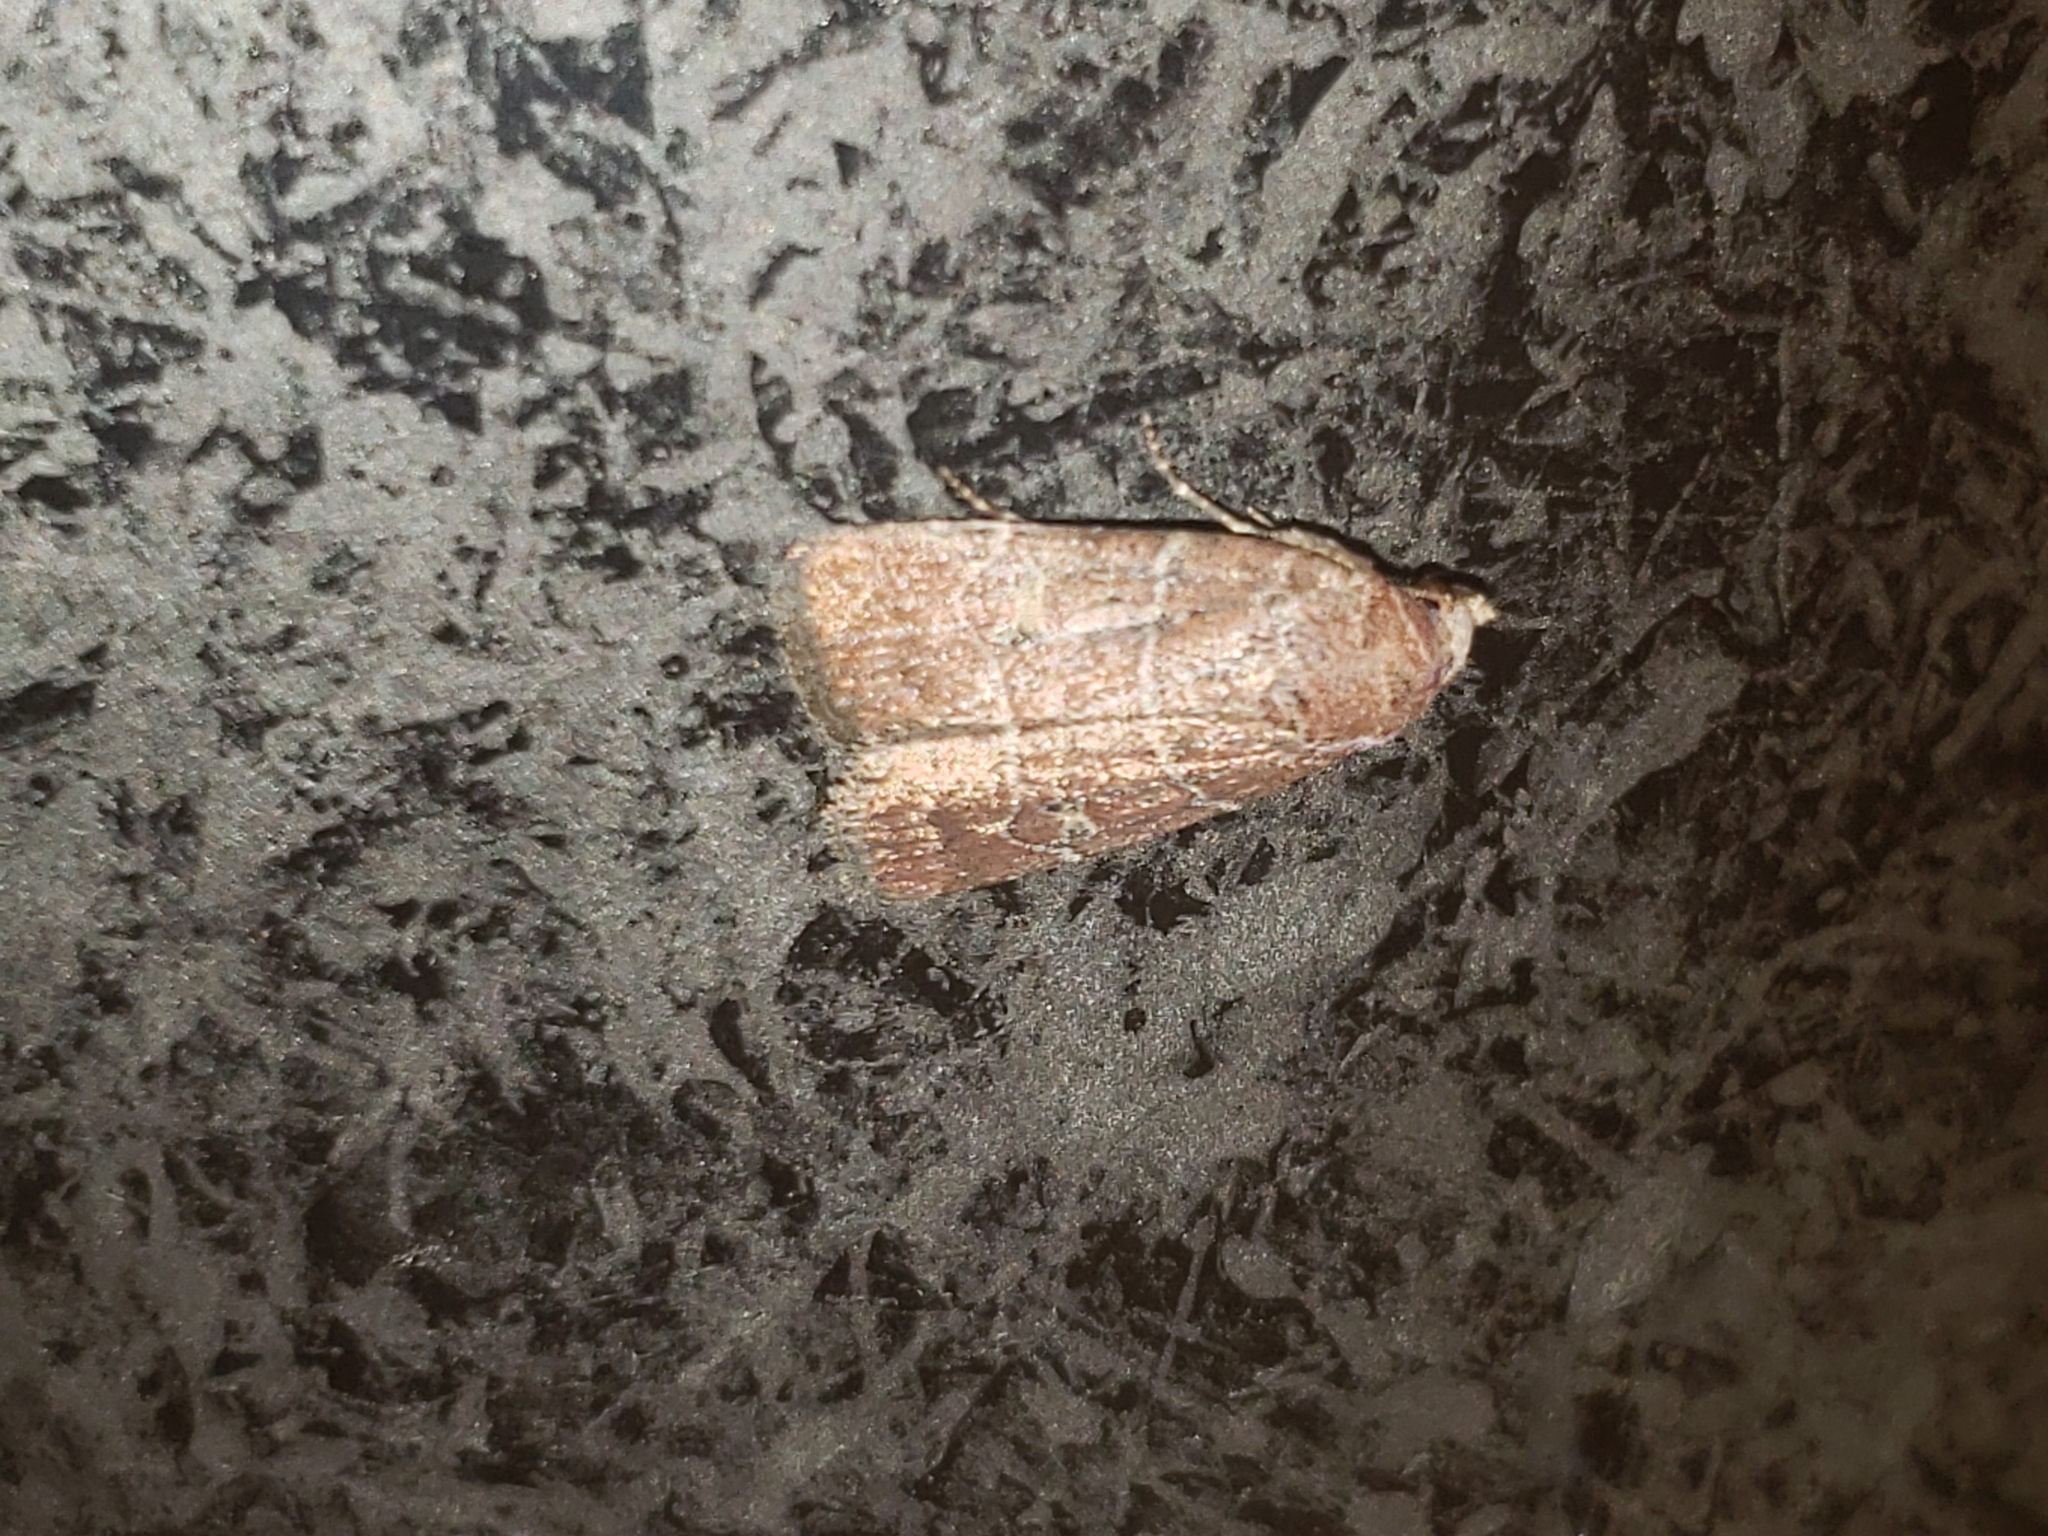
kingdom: Animalia
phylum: Arthropoda
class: Insecta
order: Lepidoptera
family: Noctuidae
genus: Elaphria
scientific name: Elaphria grata
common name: Grateful midget moth
